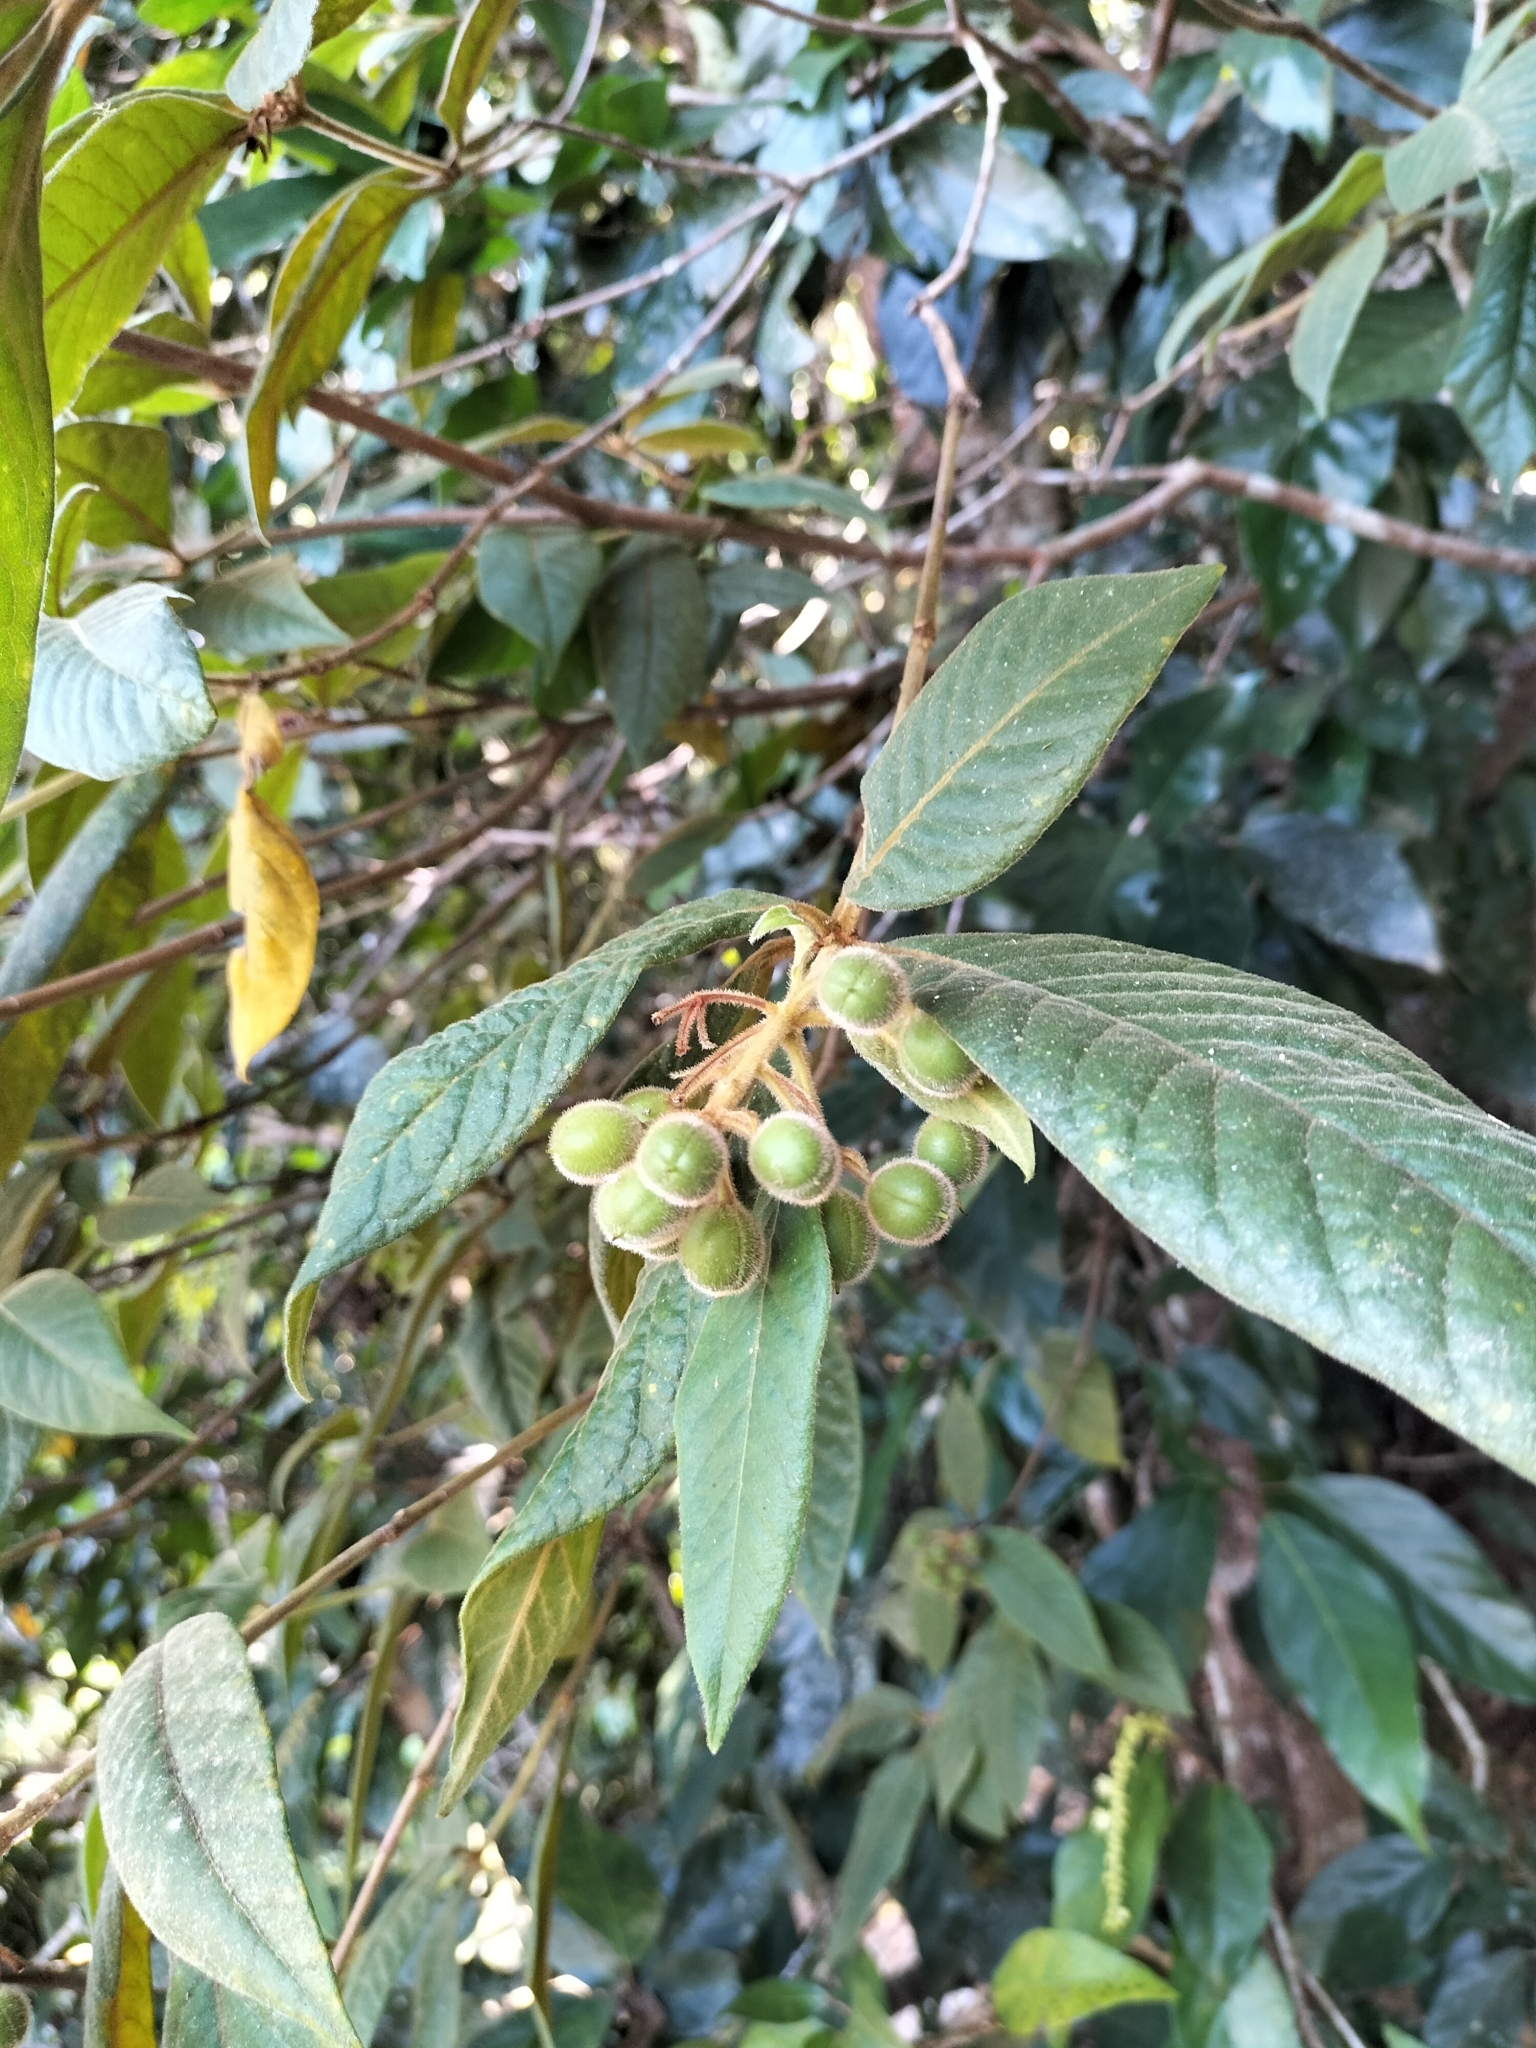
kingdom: Plantae
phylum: Tracheophyta
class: Magnoliopsida
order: Apiales
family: Pittosporaceae
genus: Pittosporum
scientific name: Pittosporum wingii
